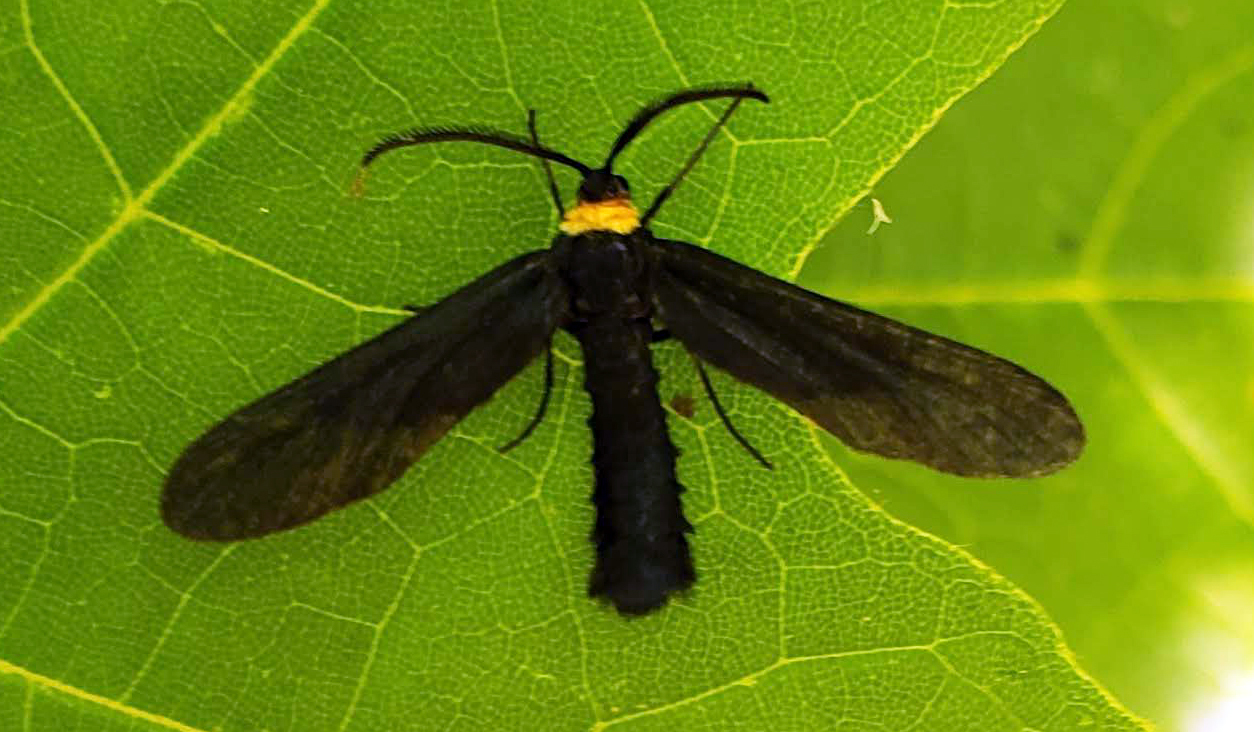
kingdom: Animalia
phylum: Arthropoda
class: Insecta
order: Lepidoptera
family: Zygaenidae
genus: Harrisina
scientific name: Harrisina americana
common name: Grapeleaf skeletonizer moth
